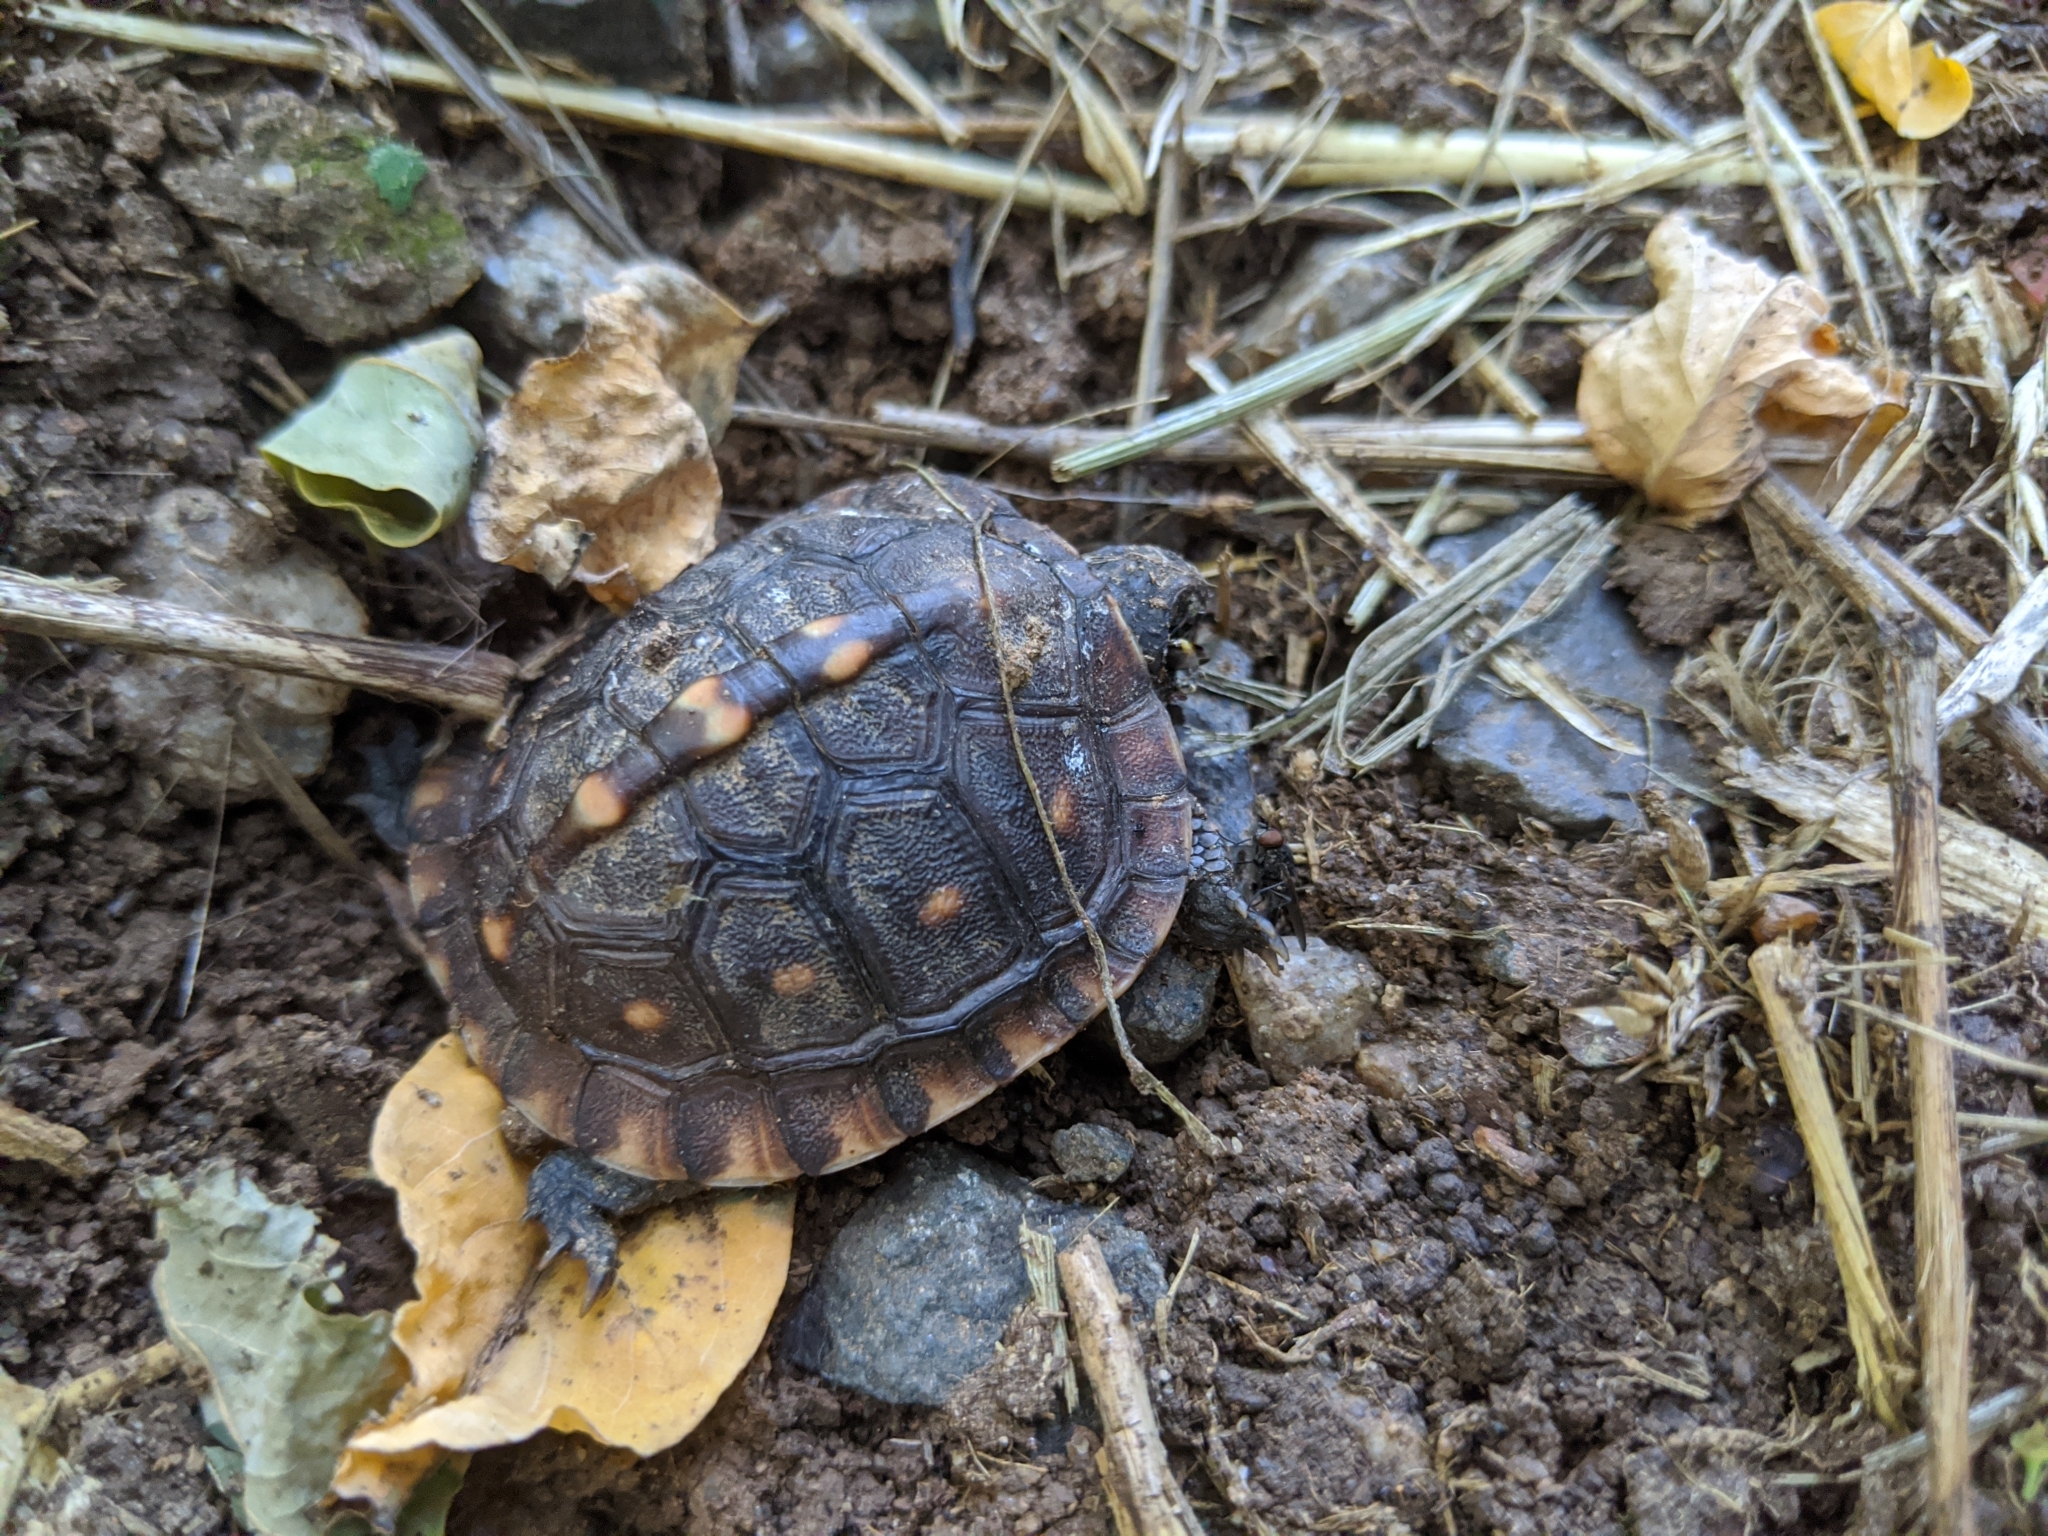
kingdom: Animalia
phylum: Chordata
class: Testudines
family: Emydidae
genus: Terrapene
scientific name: Terrapene carolina
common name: Common box turtle
